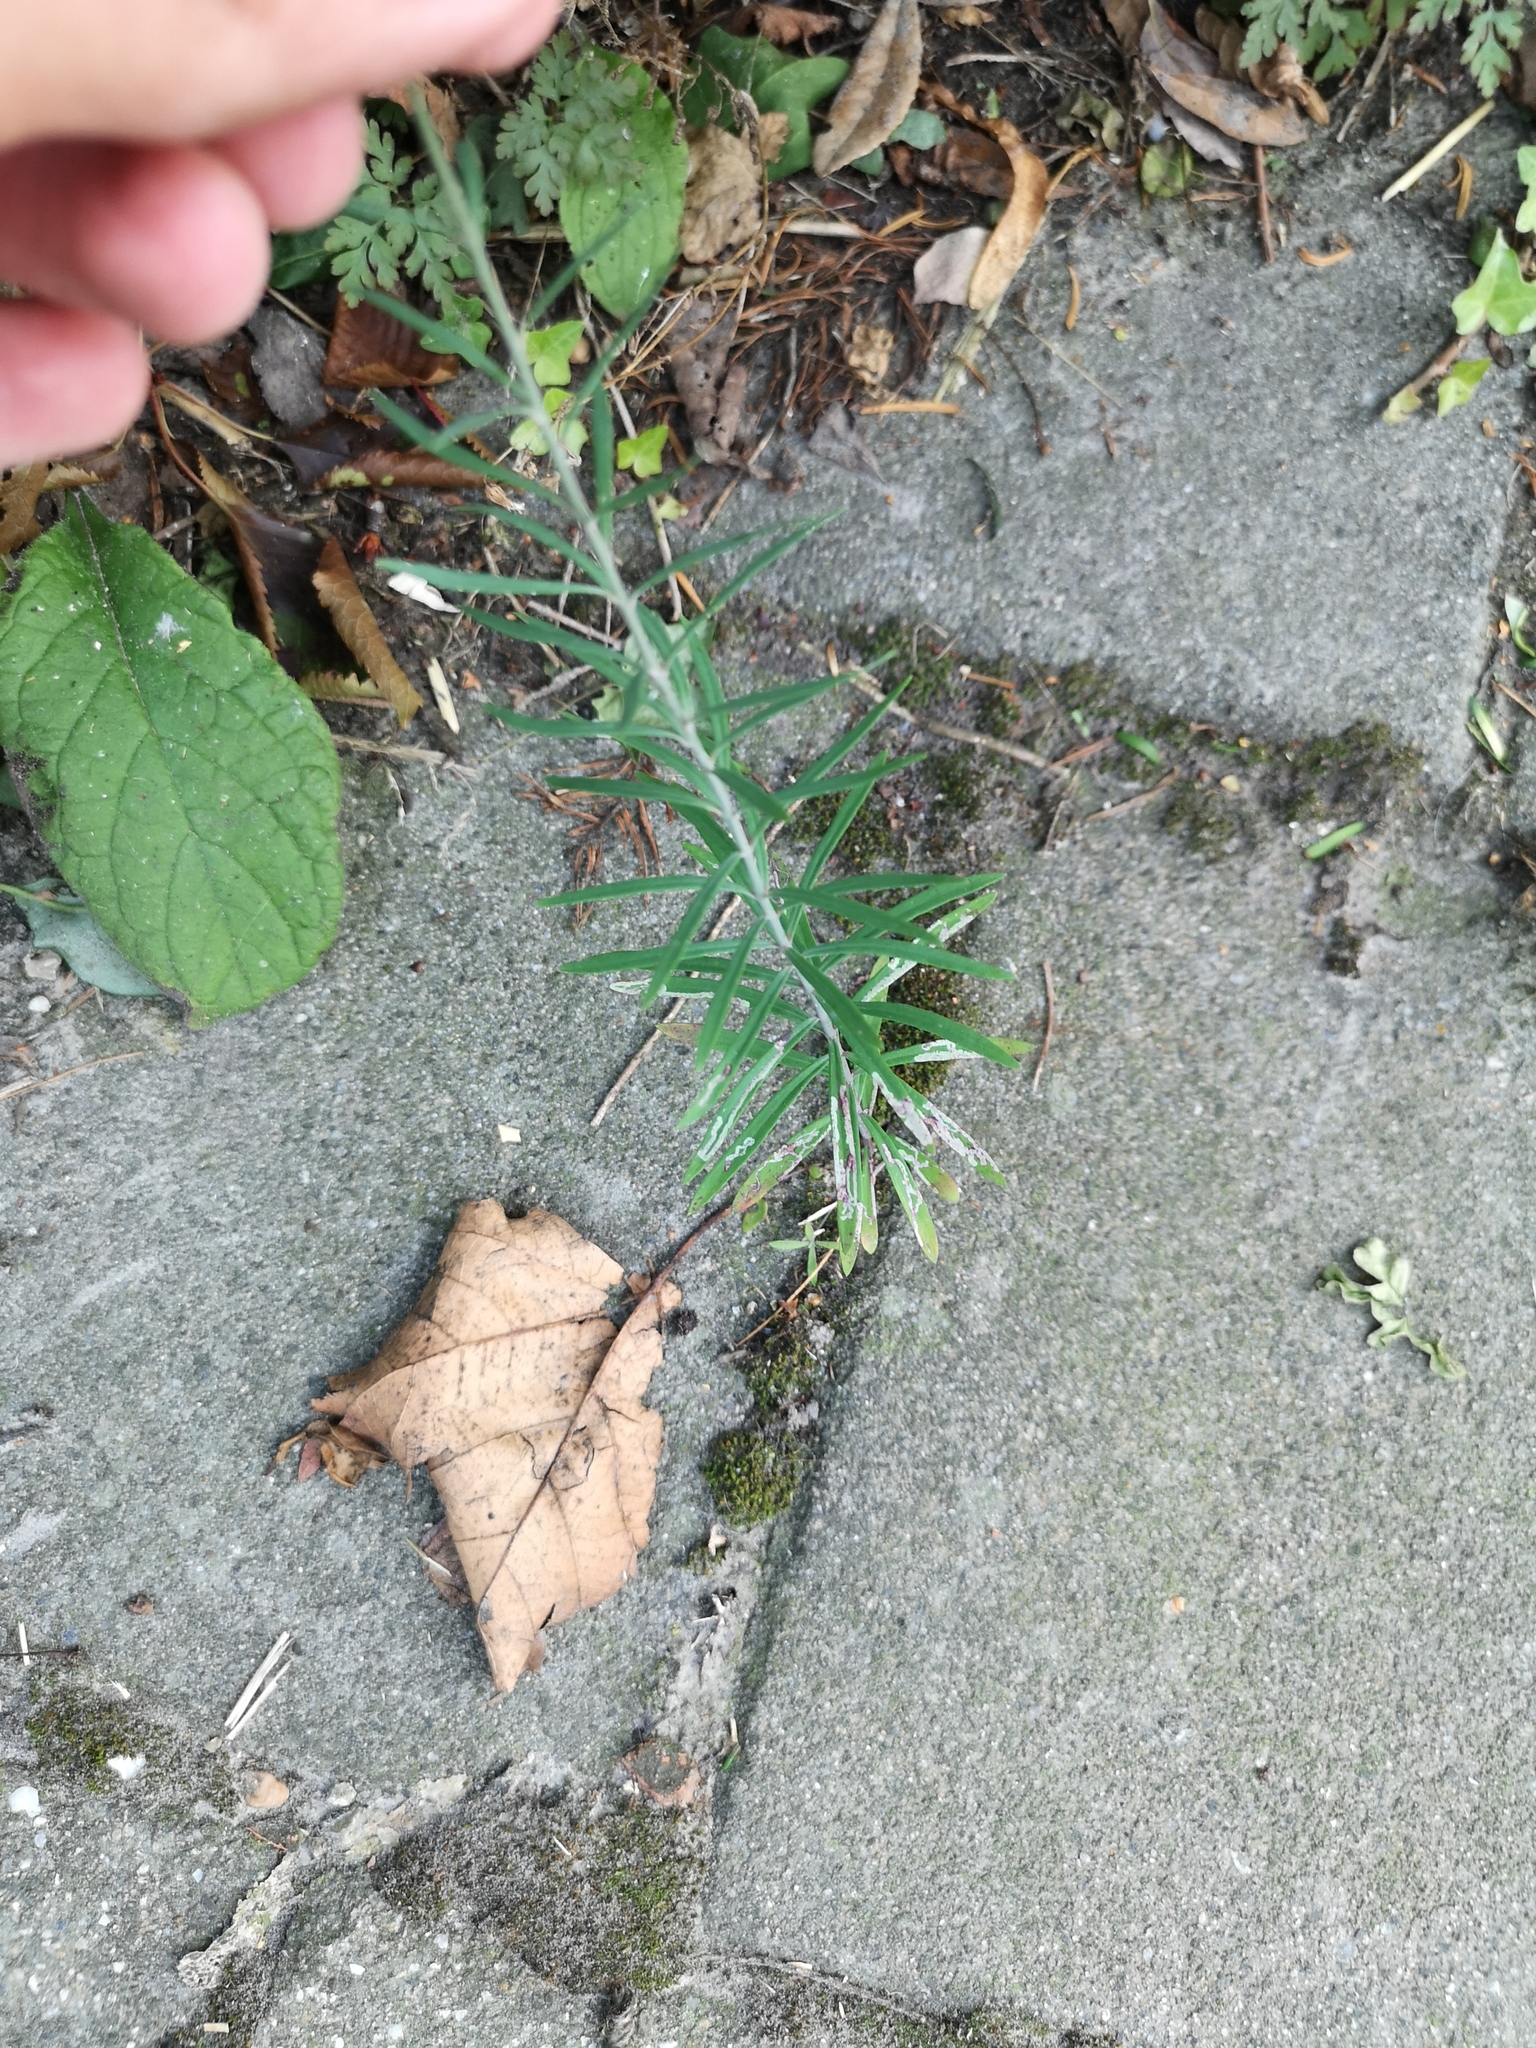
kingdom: Plantae
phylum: Tracheophyta
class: Magnoliopsida
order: Lamiales
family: Plantaginaceae
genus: Linaria
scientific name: Linaria purpurea
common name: Purple toadflax
